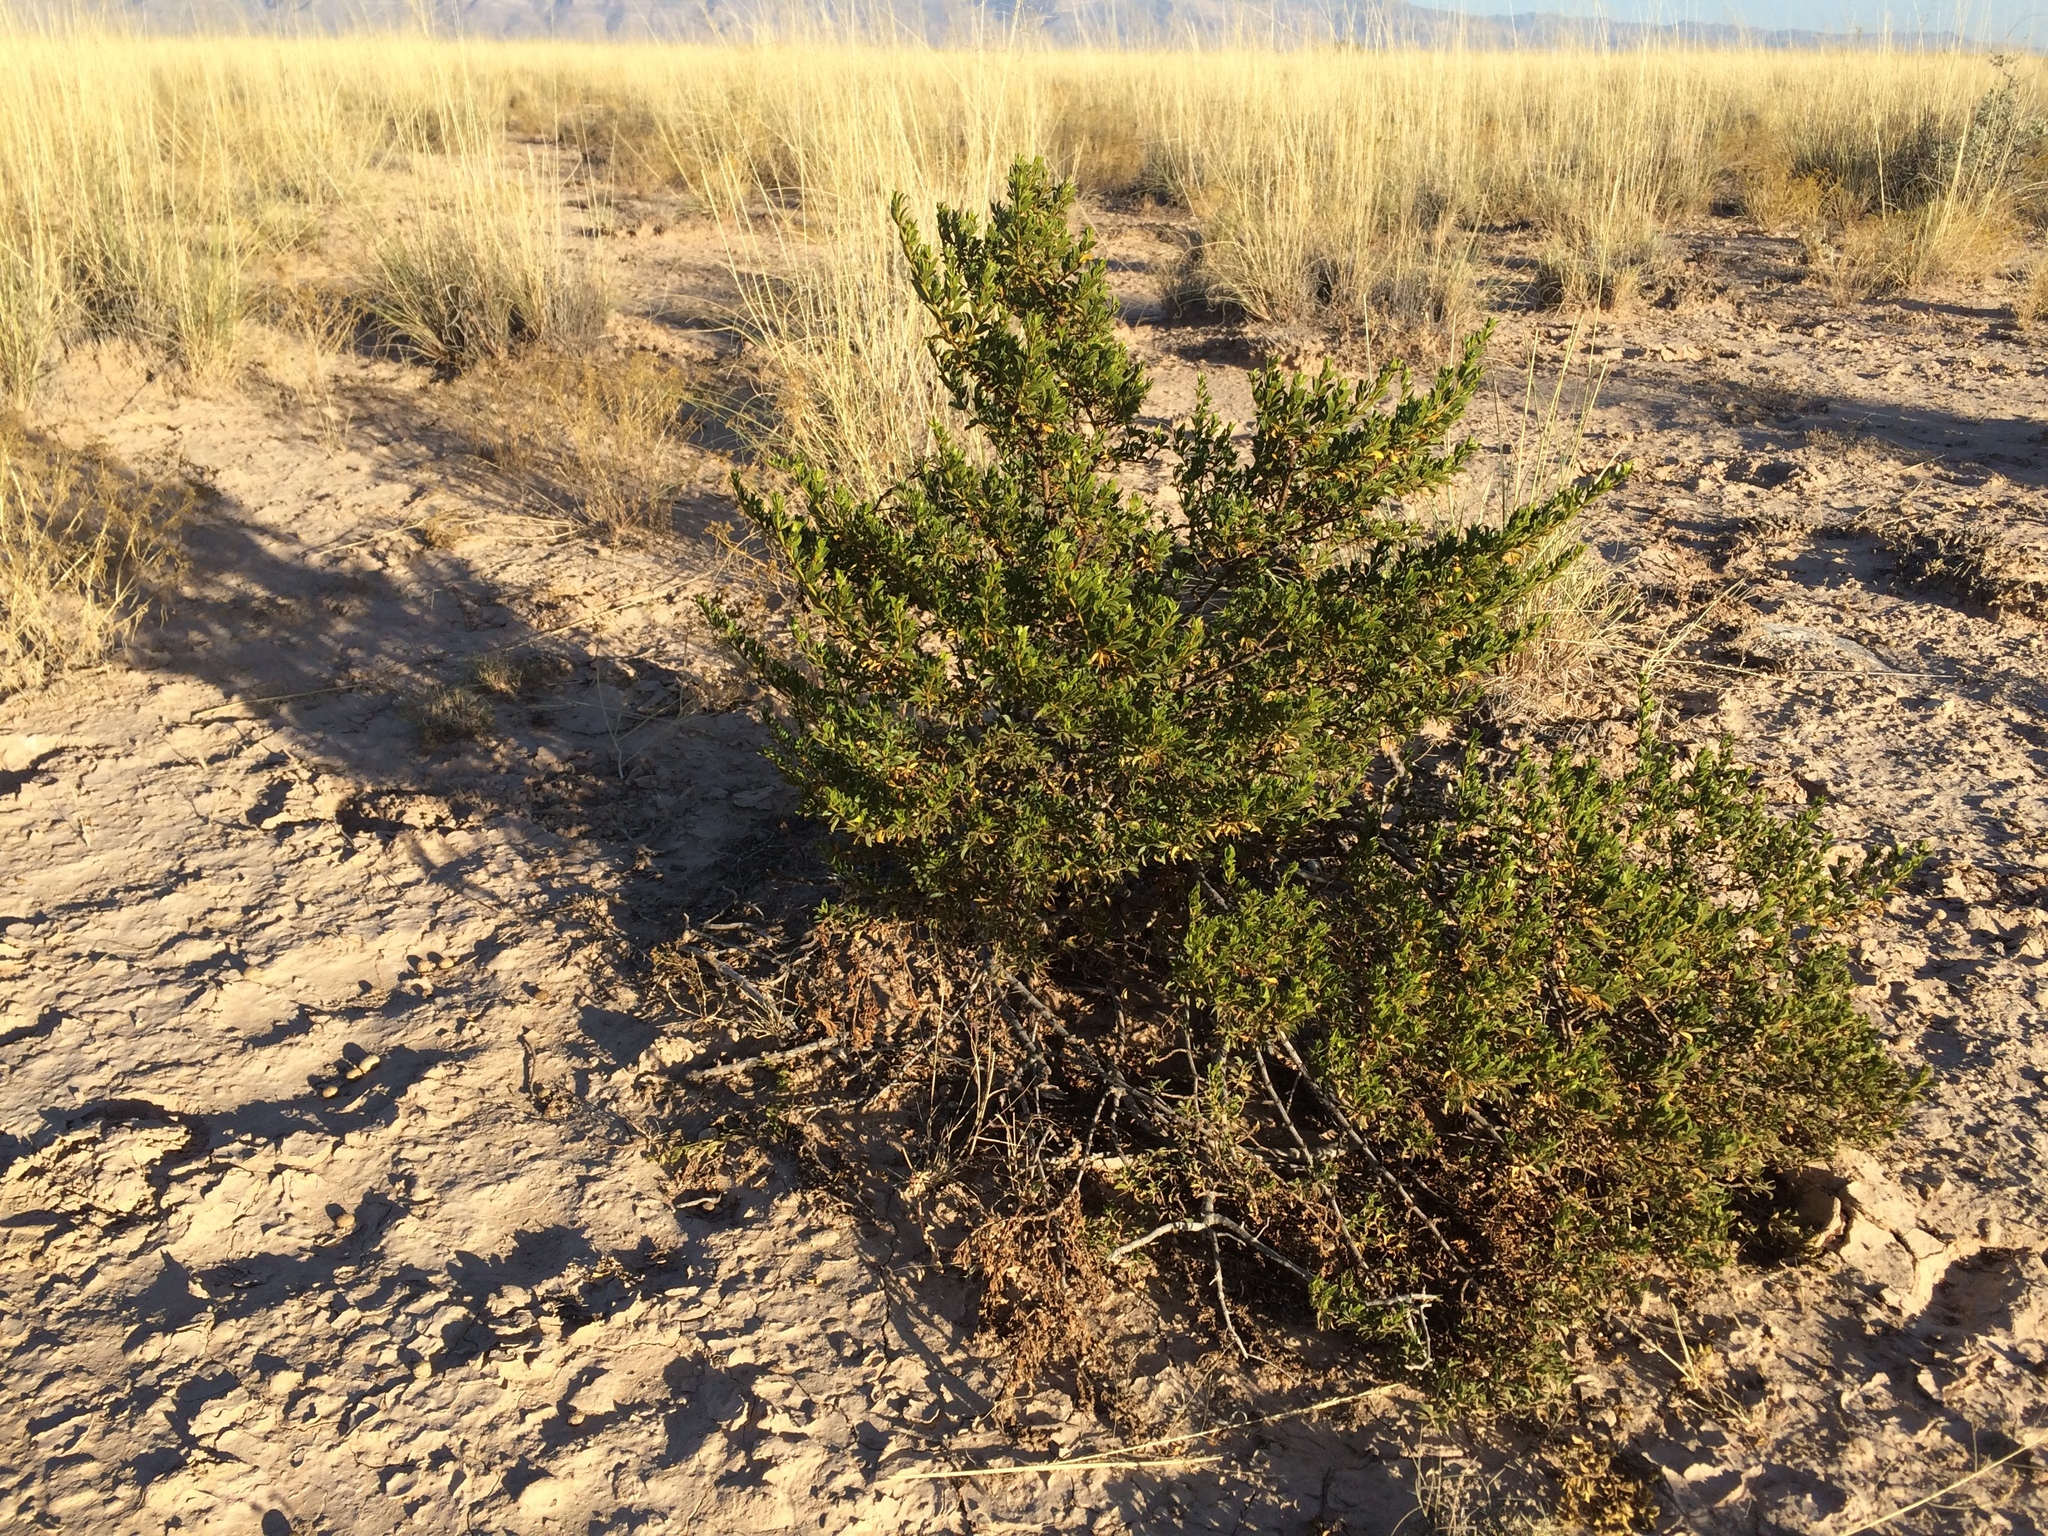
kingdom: Plantae
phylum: Tracheophyta
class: Magnoliopsida
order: Zygophyllales
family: Zygophyllaceae
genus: Larrea
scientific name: Larrea tridentata
